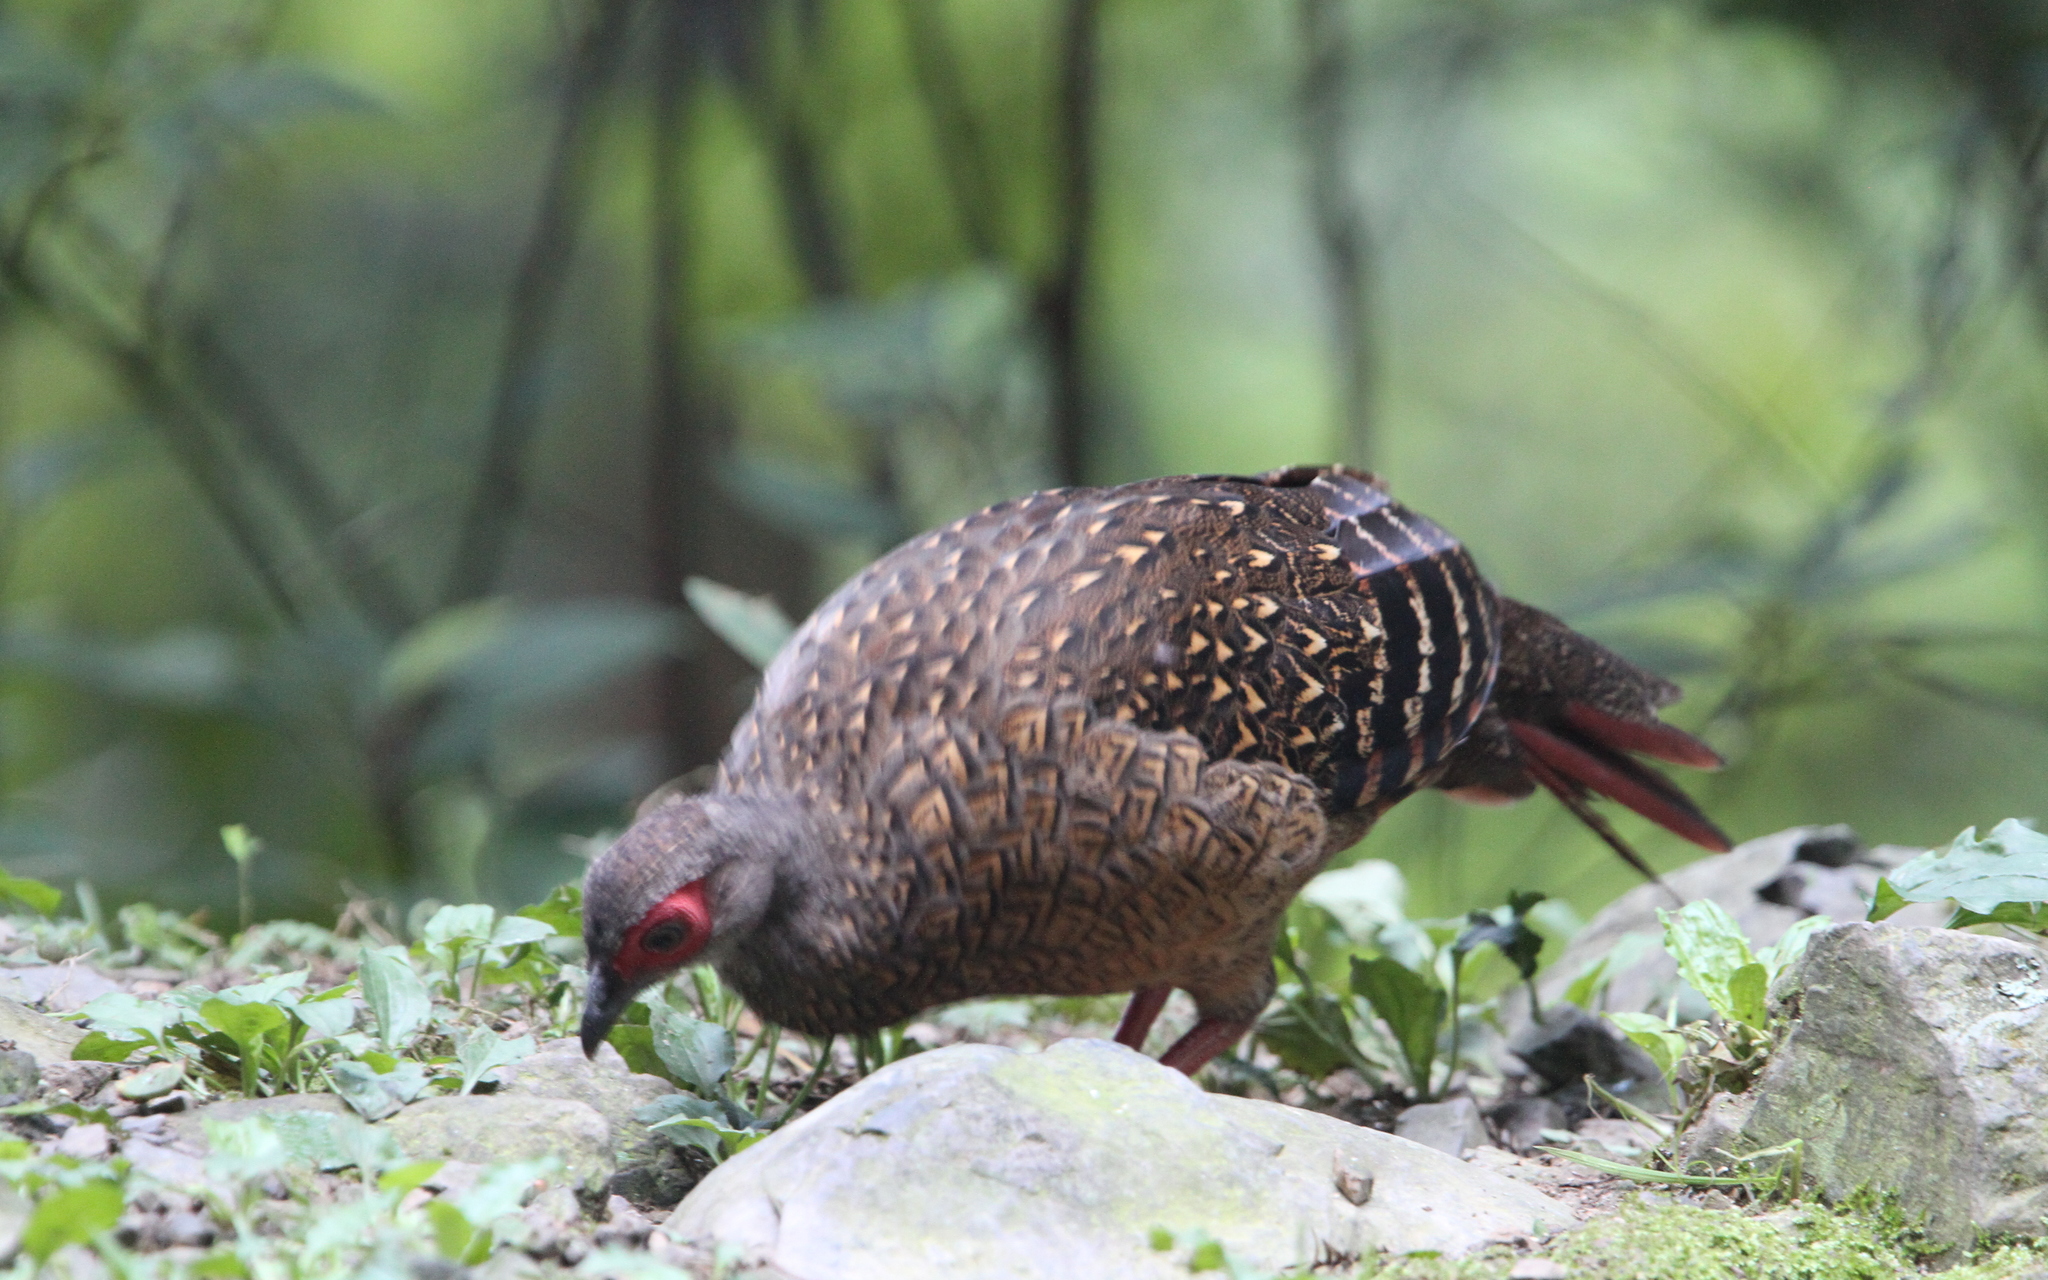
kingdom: Animalia
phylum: Chordata
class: Aves
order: Galliformes
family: Phasianidae
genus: Lophura
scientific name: Lophura swinhoii
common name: Swinhoe's pheasant
